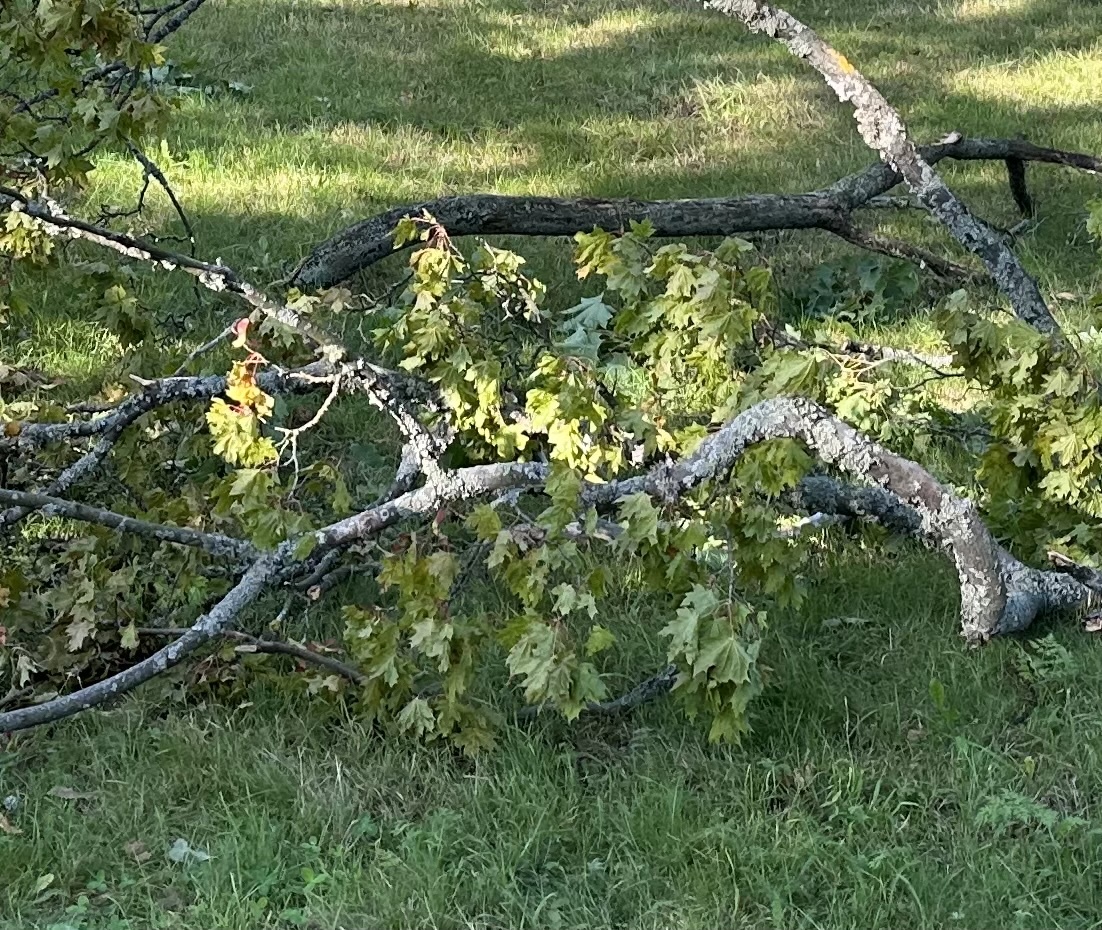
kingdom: Plantae
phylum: Tracheophyta
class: Magnoliopsida
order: Sapindales
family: Sapindaceae
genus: Acer
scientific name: Acer platanoides
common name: Norway maple
